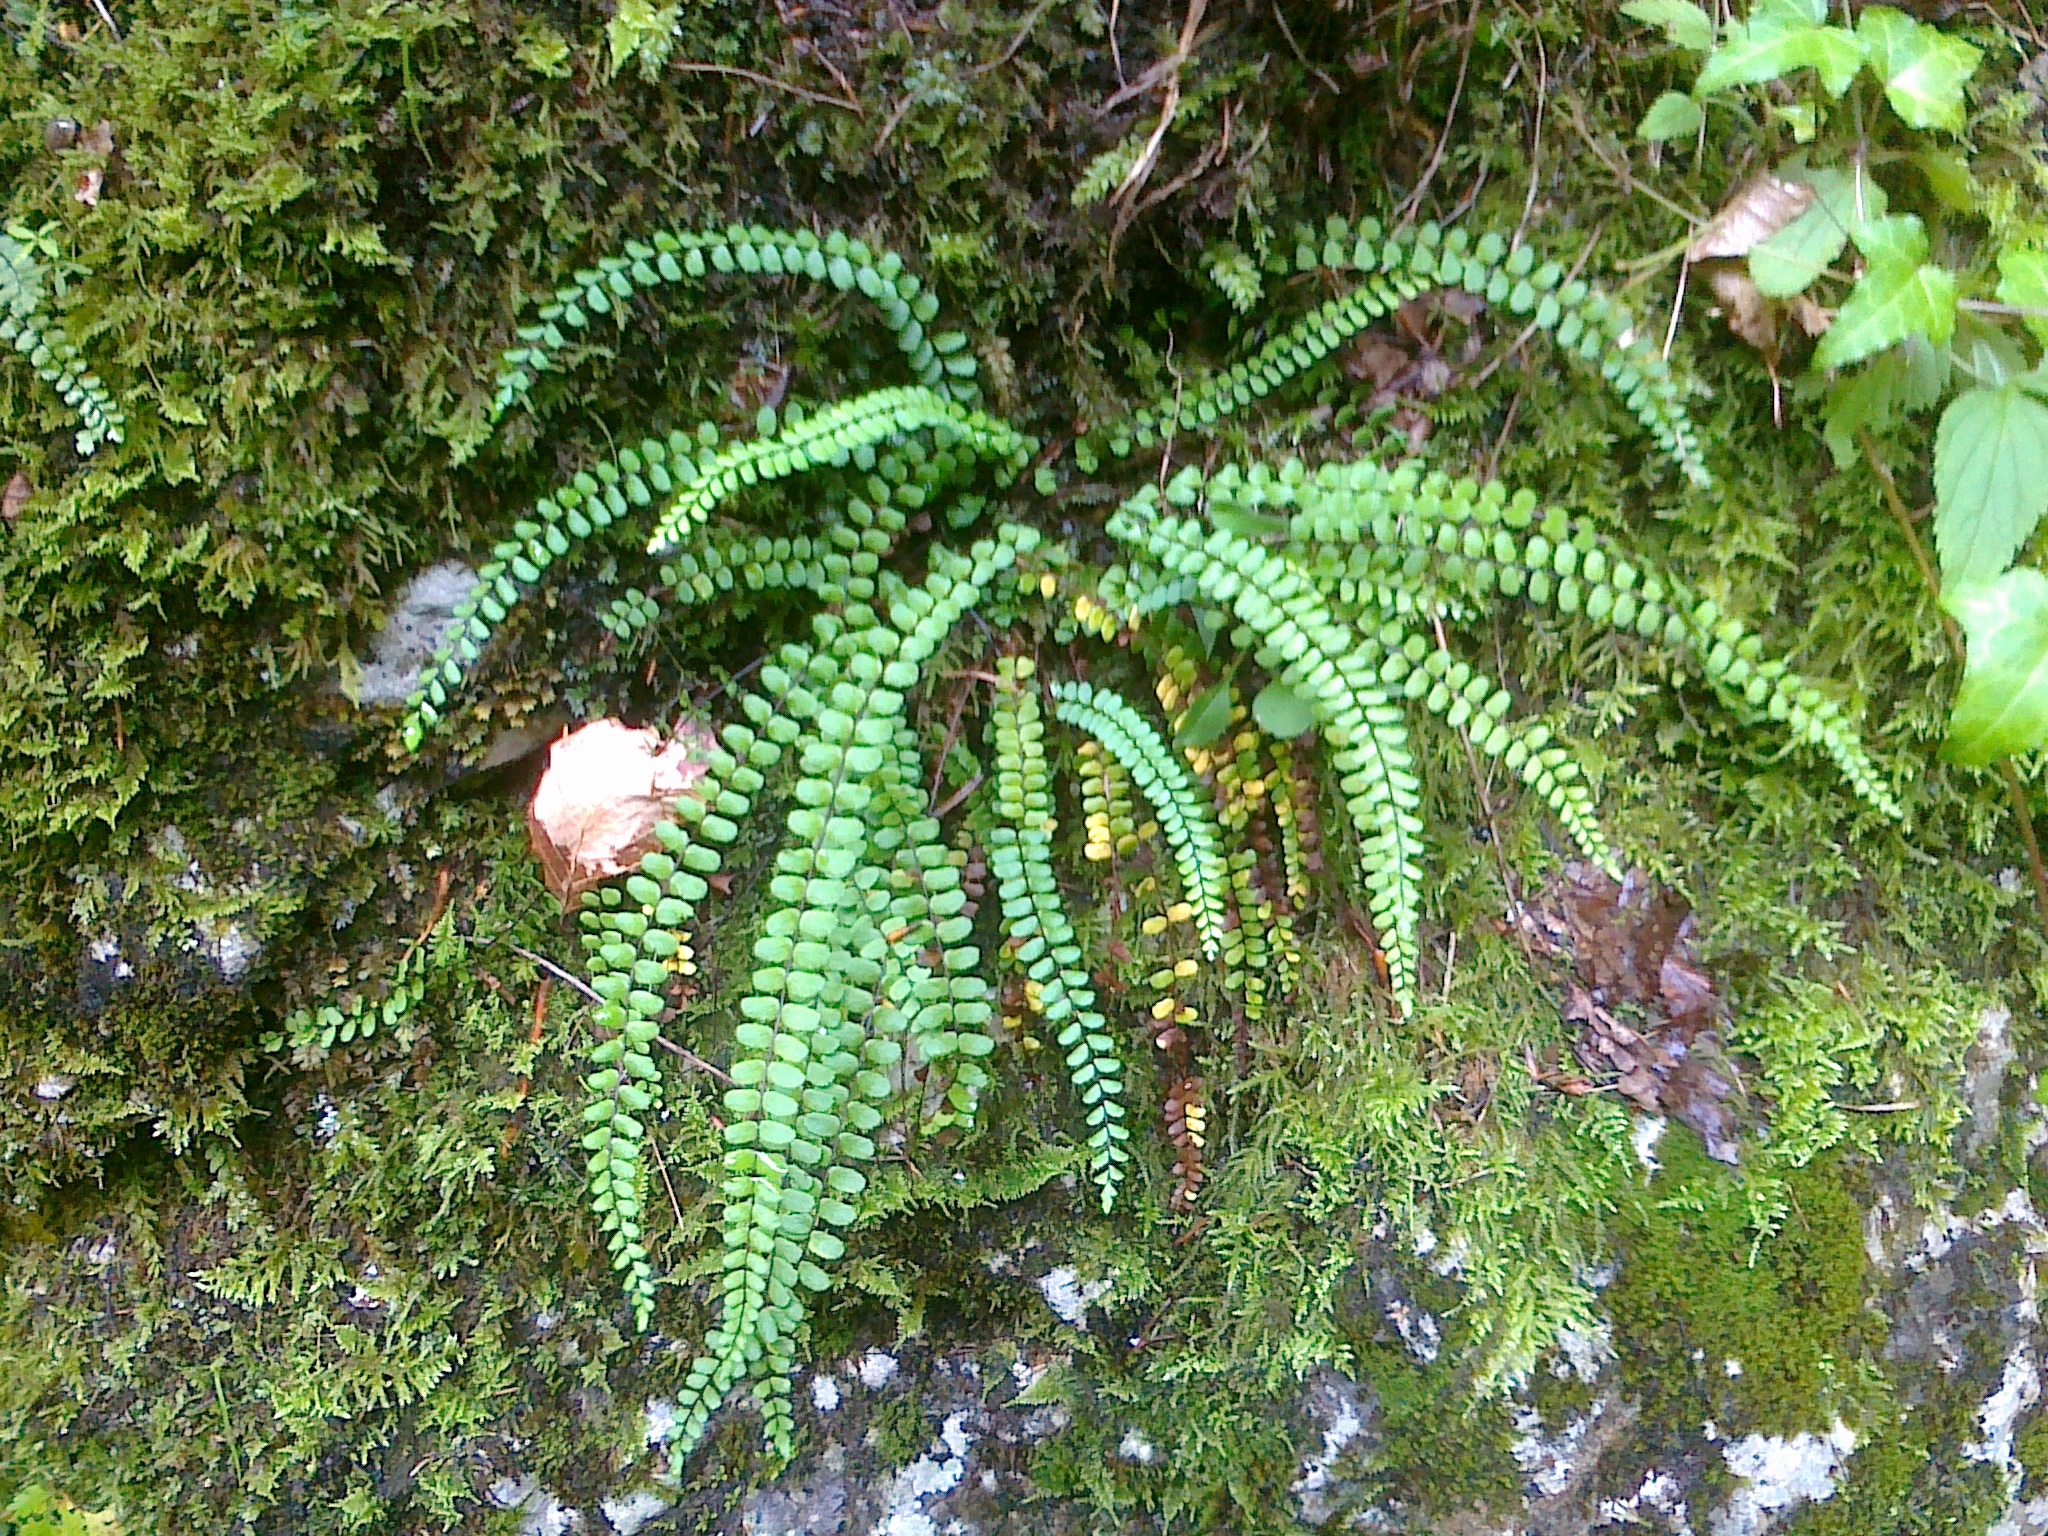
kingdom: Plantae
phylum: Tracheophyta
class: Polypodiopsida
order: Polypodiales
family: Aspleniaceae
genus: Asplenium
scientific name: Asplenium quadrivalens
